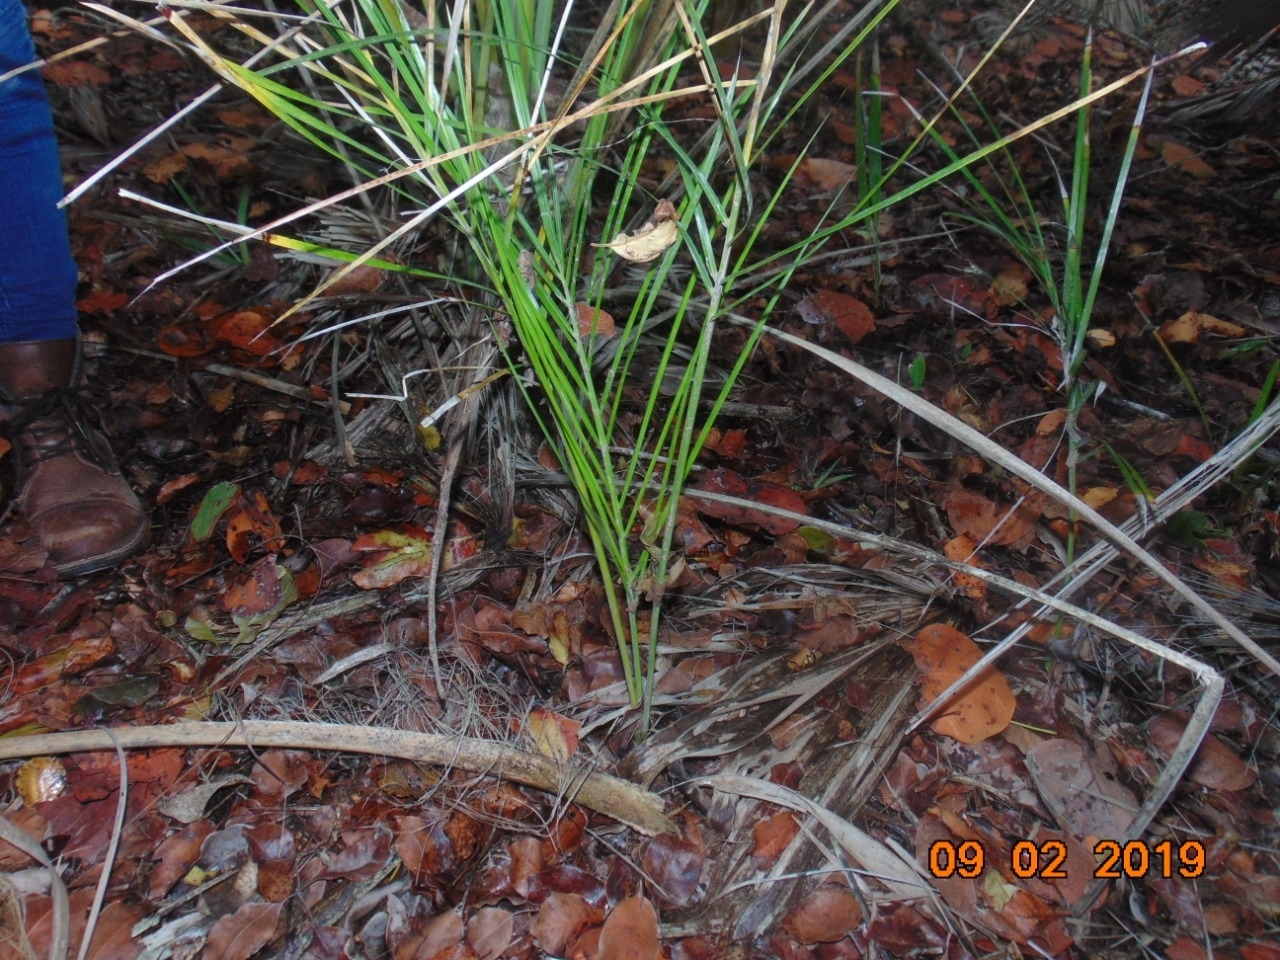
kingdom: Plantae
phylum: Tracheophyta
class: Liliopsida
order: Arecales
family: Arecaceae
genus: Pseudophoenix
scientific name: Pseudophoenix sargentii
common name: Buccaneer palm
